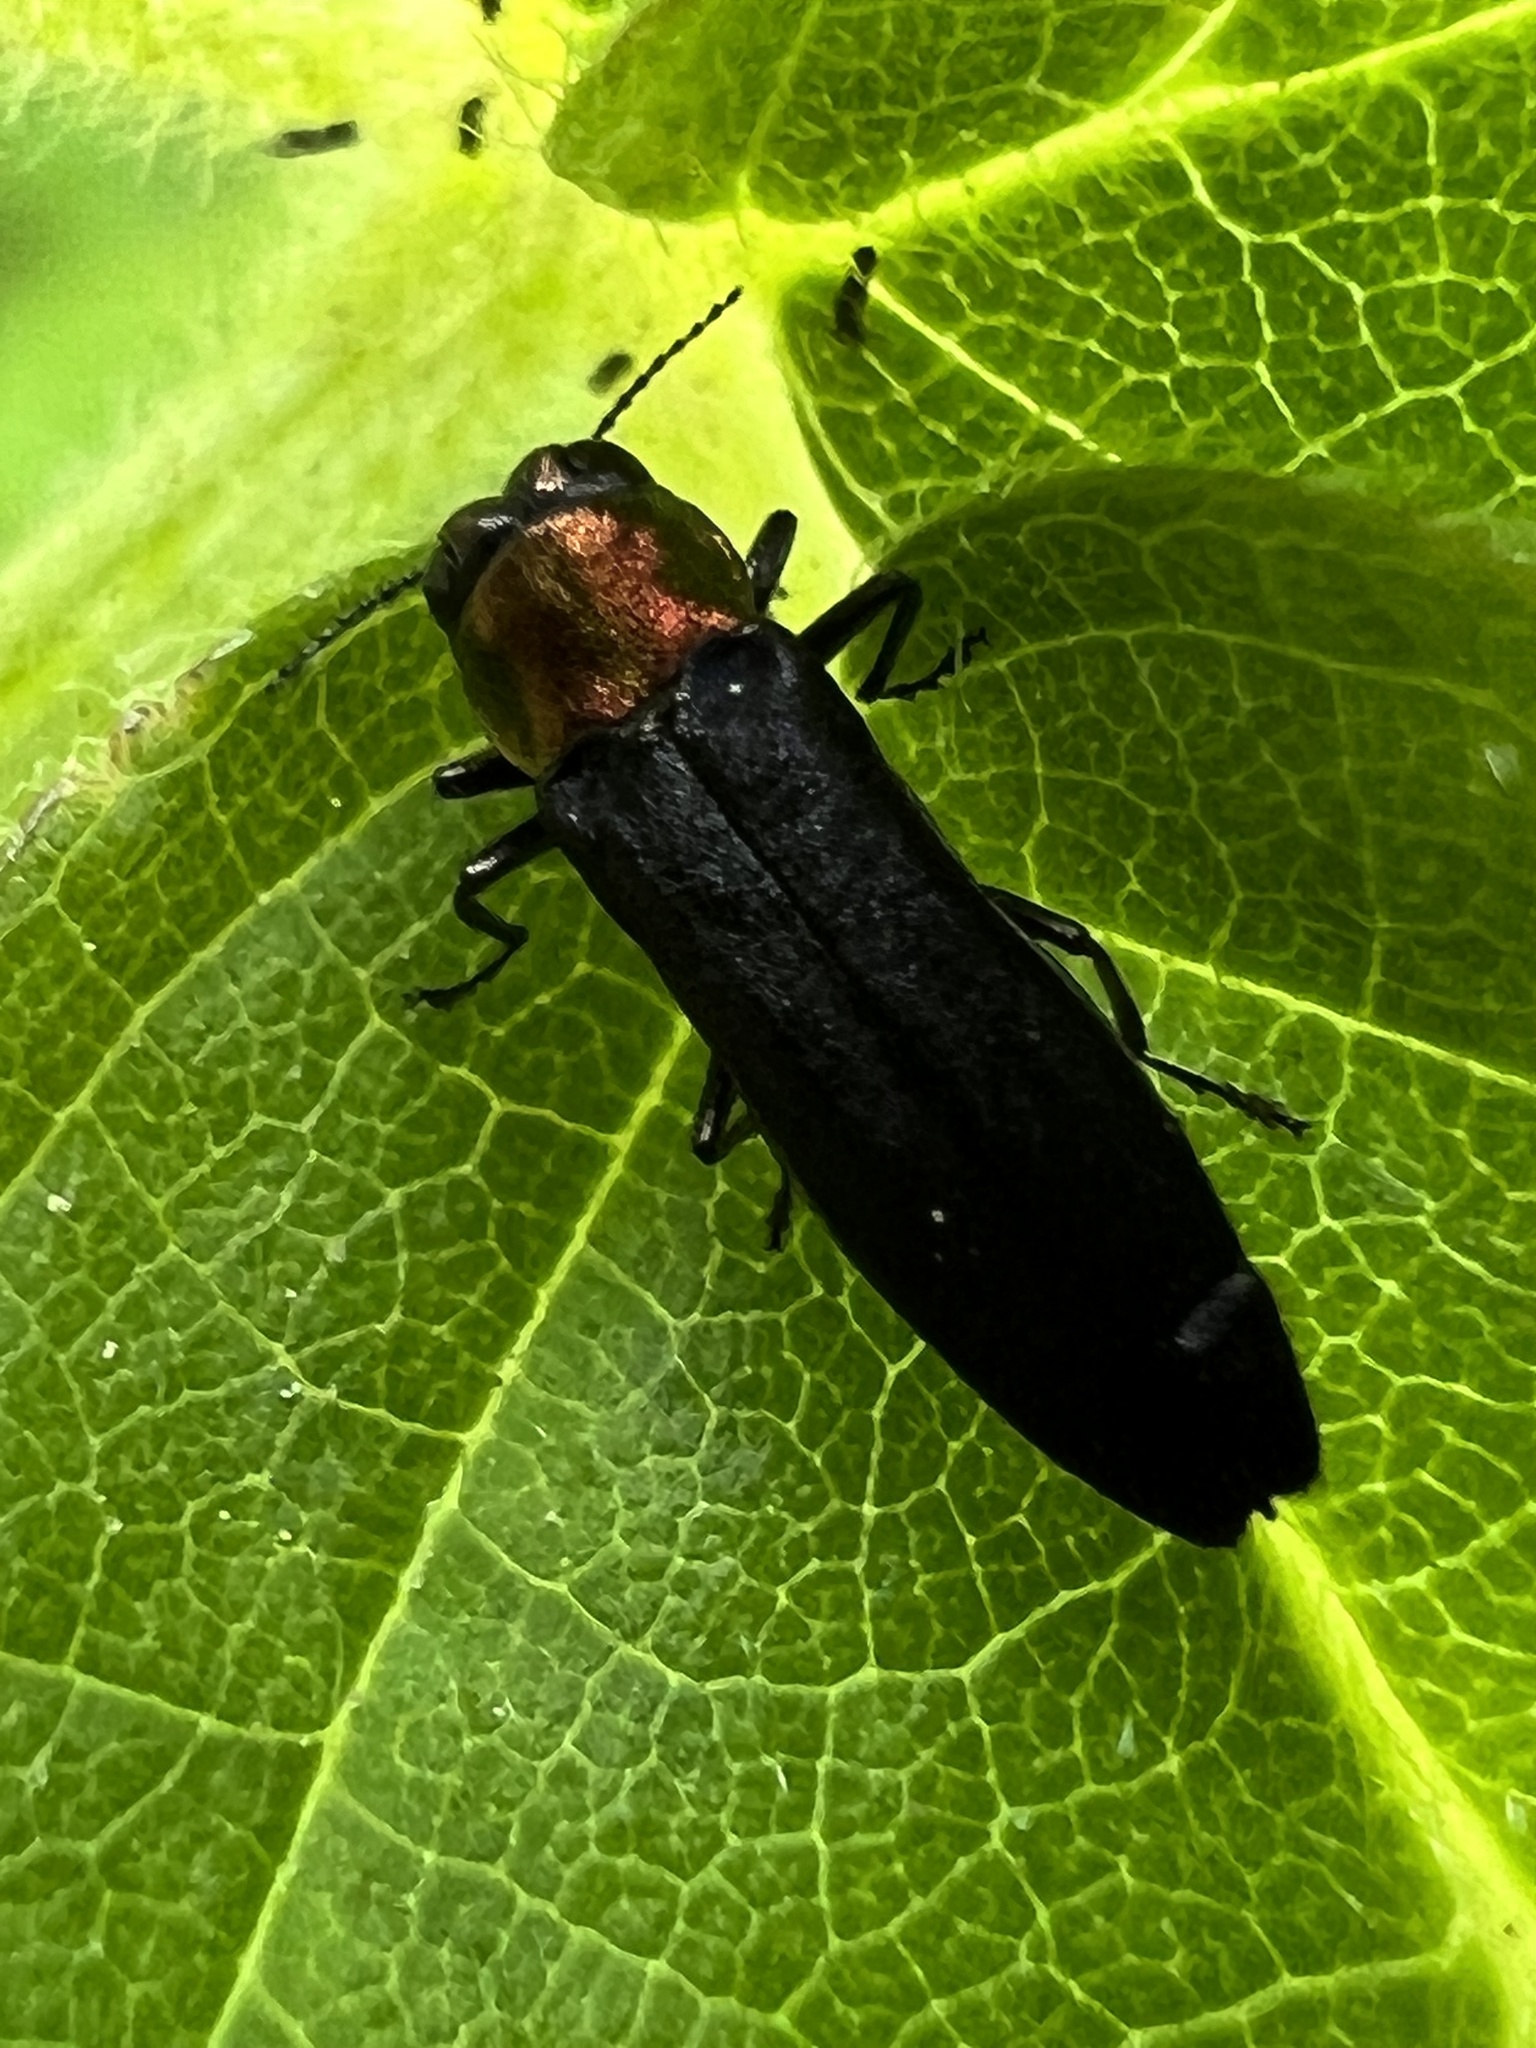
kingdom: Animalia
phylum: Arthropoda
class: Insecta
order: Coleoptera
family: Buprestidae
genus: Agrilus
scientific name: Agrilus ruficollis
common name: Red-necked cane borer beetle
